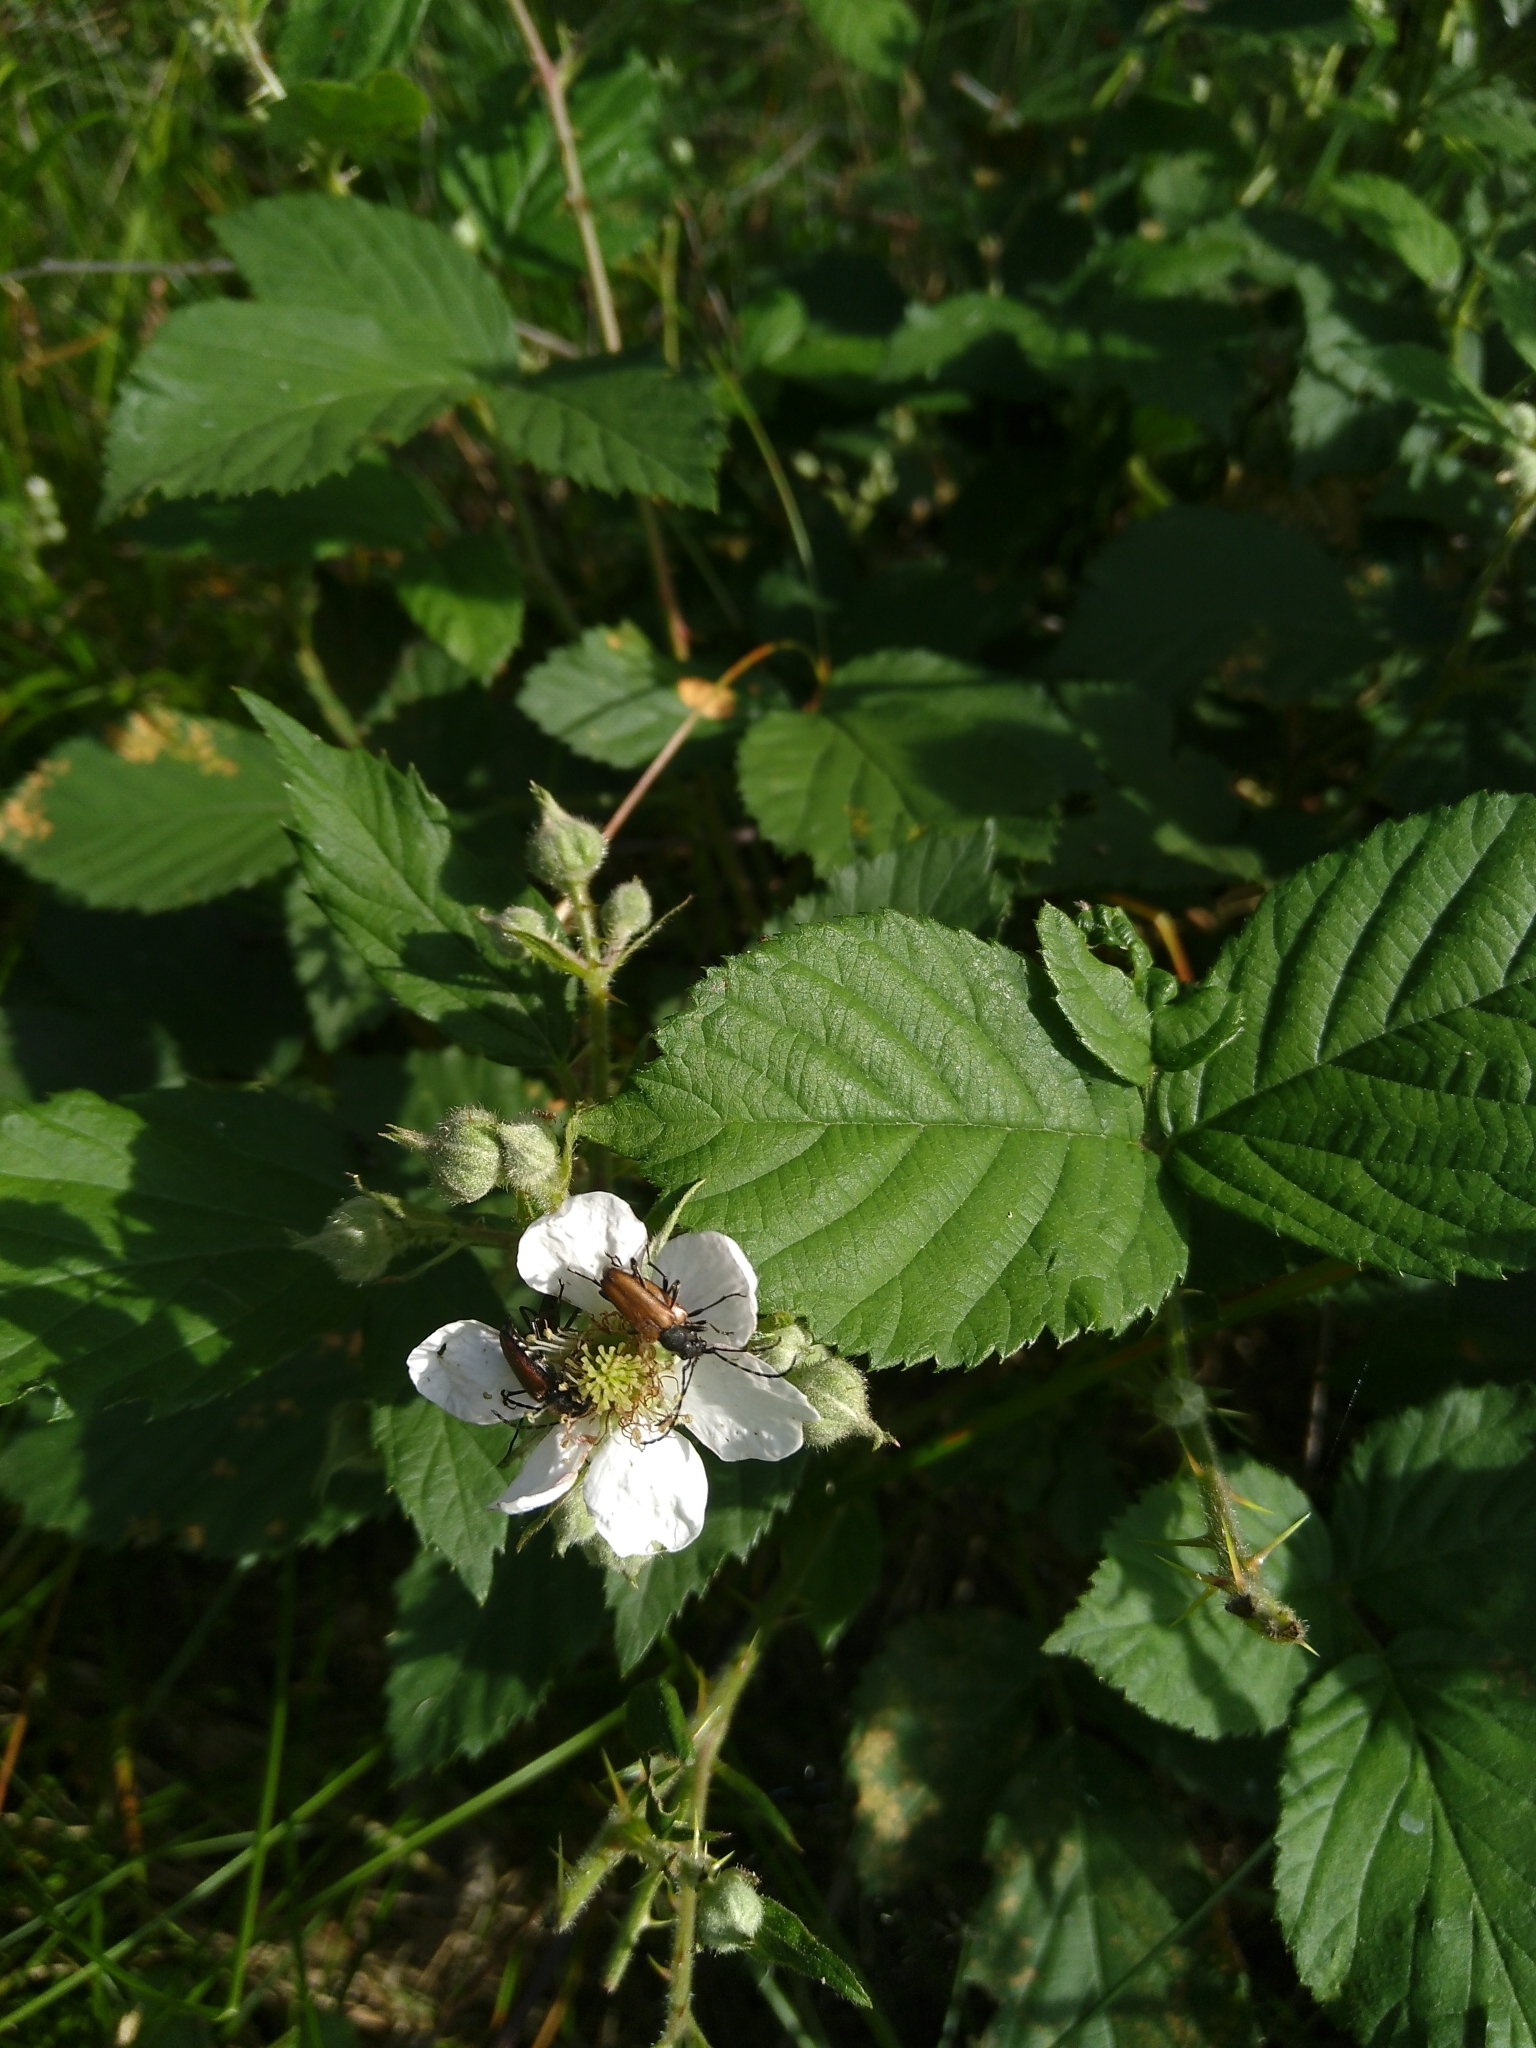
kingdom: Animalia
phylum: Arthropoda
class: Insecta
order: Coleoptera
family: Cerambycidae
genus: Paracorymbia
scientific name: Paracorymbia maculicornis
